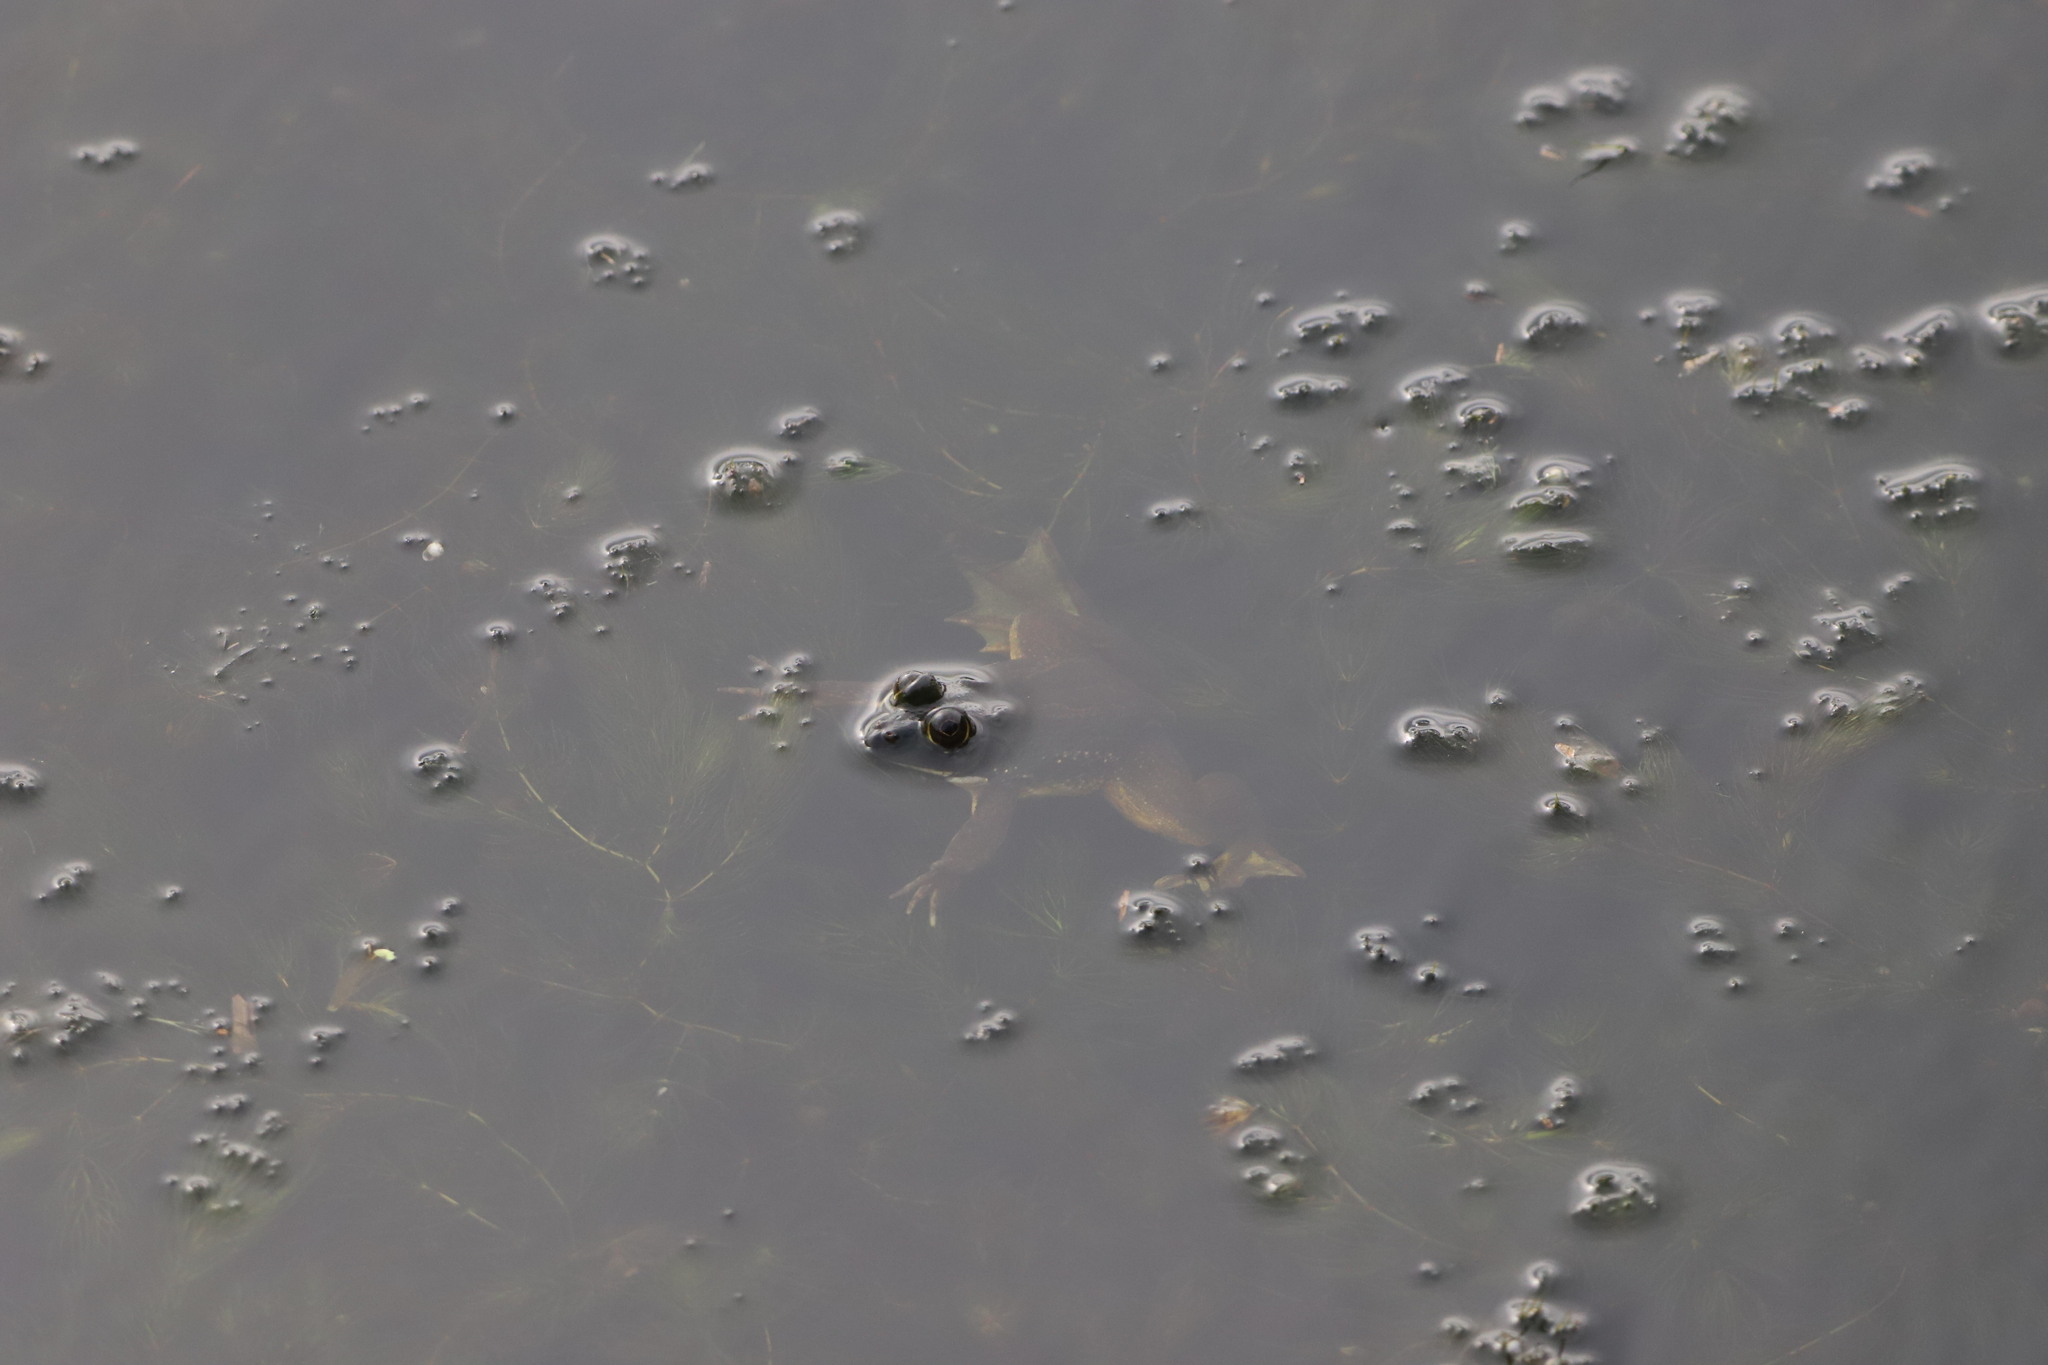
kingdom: Animalia
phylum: Chordata
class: Amphibia
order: Anura
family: Dicroglossidae
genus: Euphlyctis
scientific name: Euphlyctis hexadactylus
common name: Indian green frog
